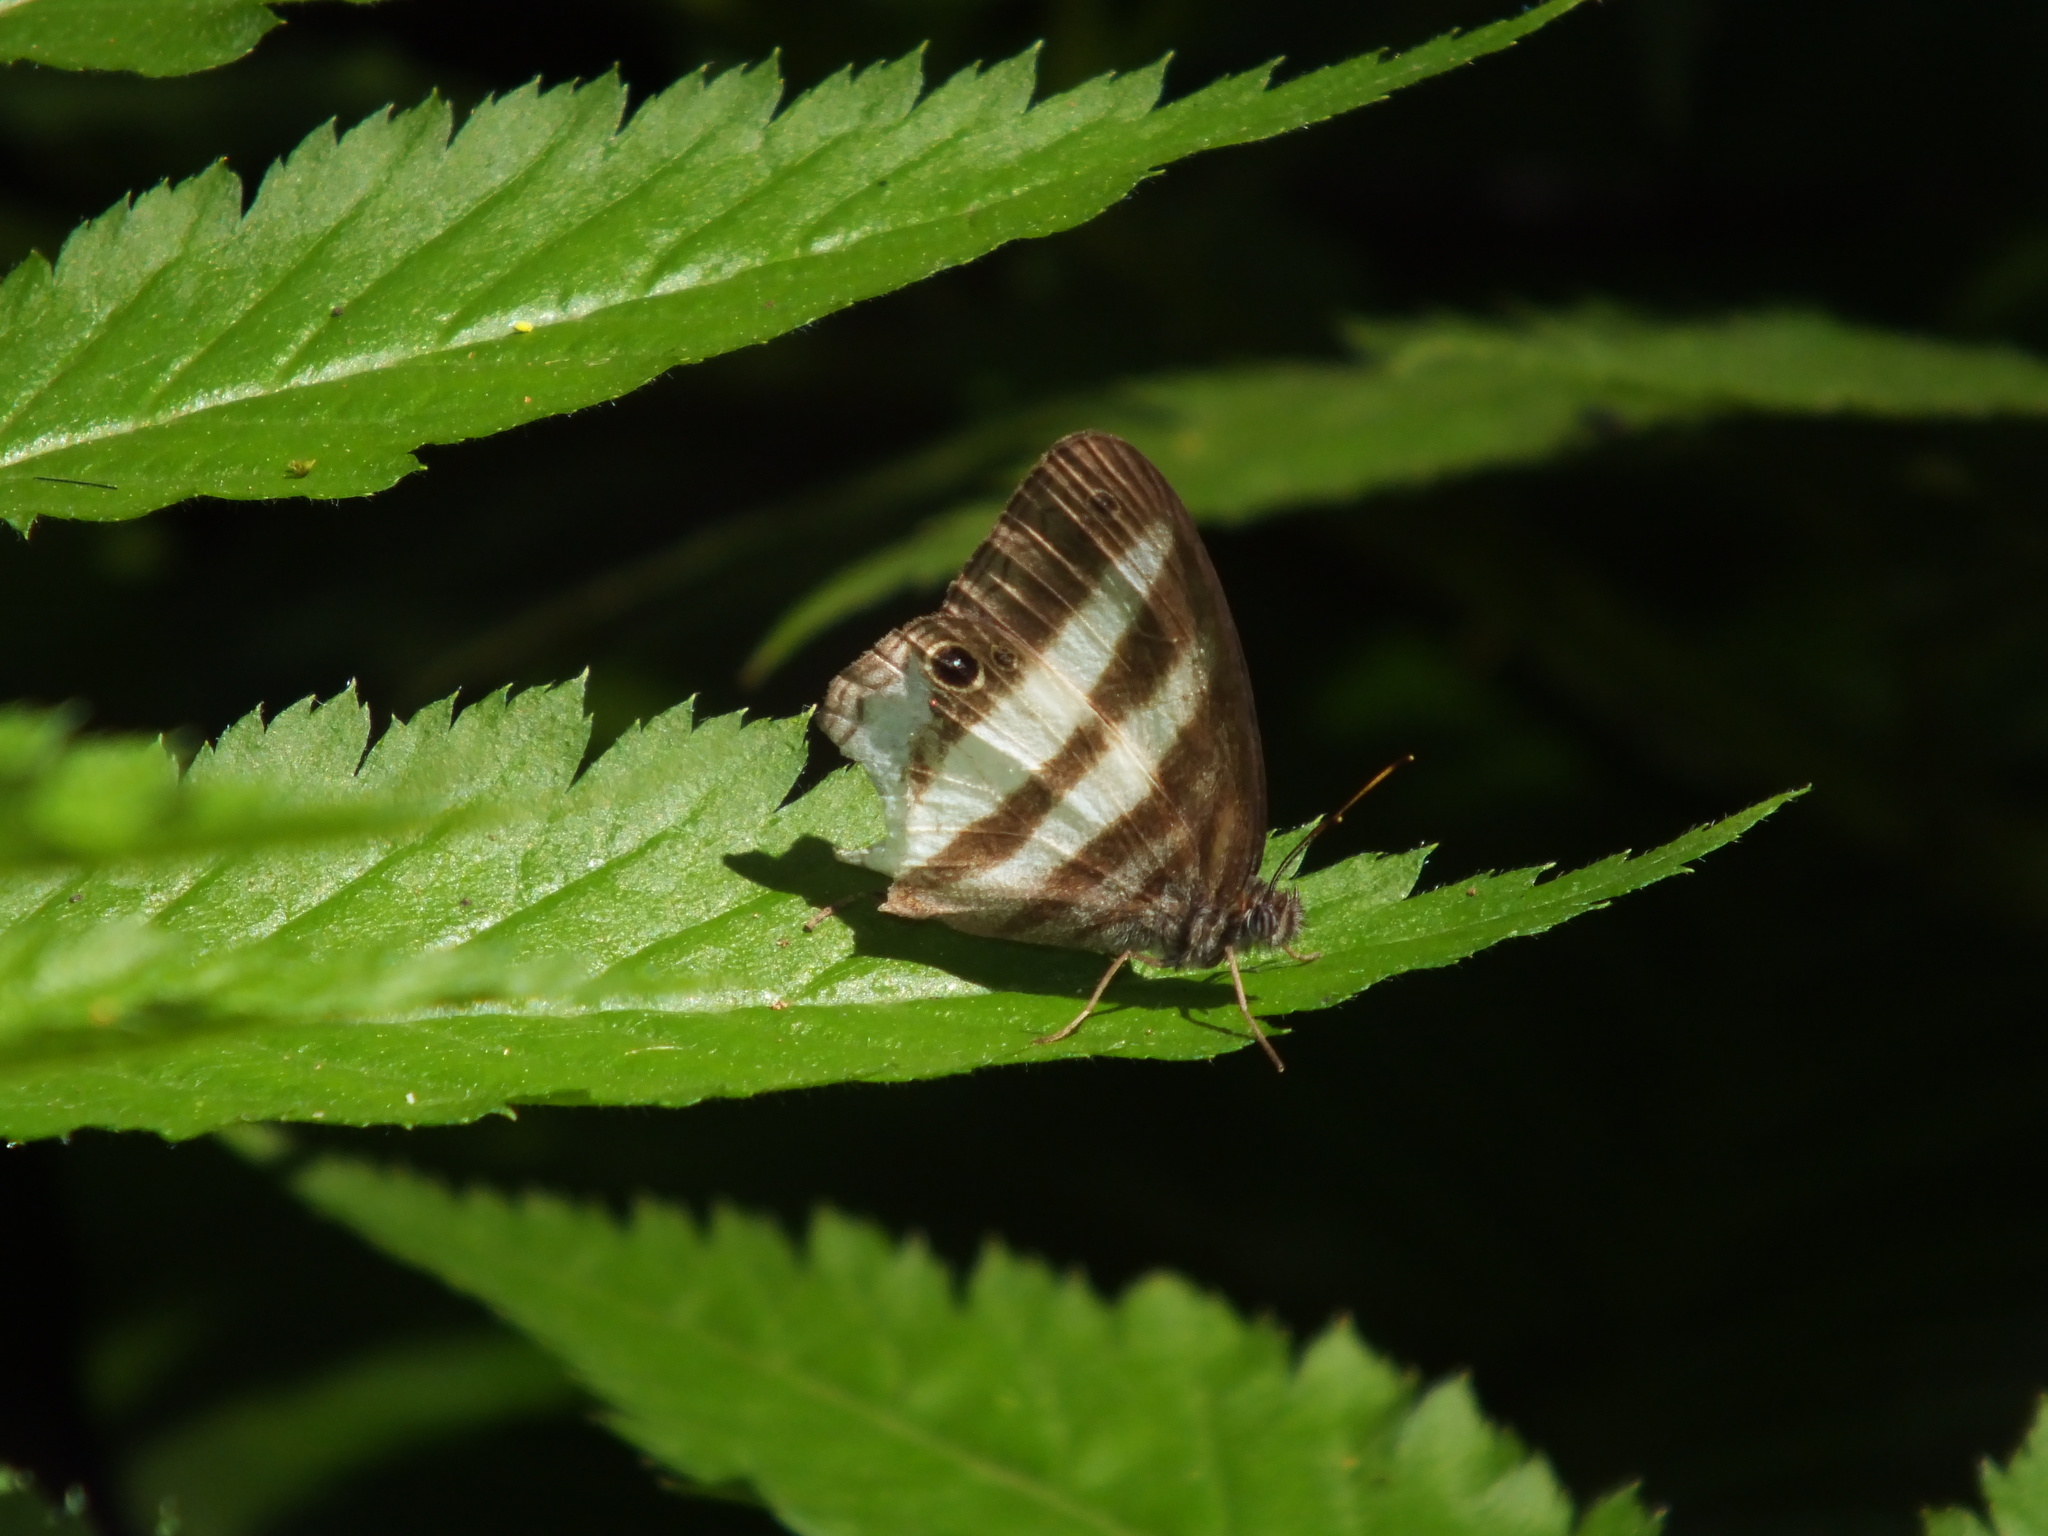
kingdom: Animalia
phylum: Arthropoda
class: Insecta
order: Lepidoptera
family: Nymphalidae
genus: Pareuptychia
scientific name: Pareuptychia hesione
